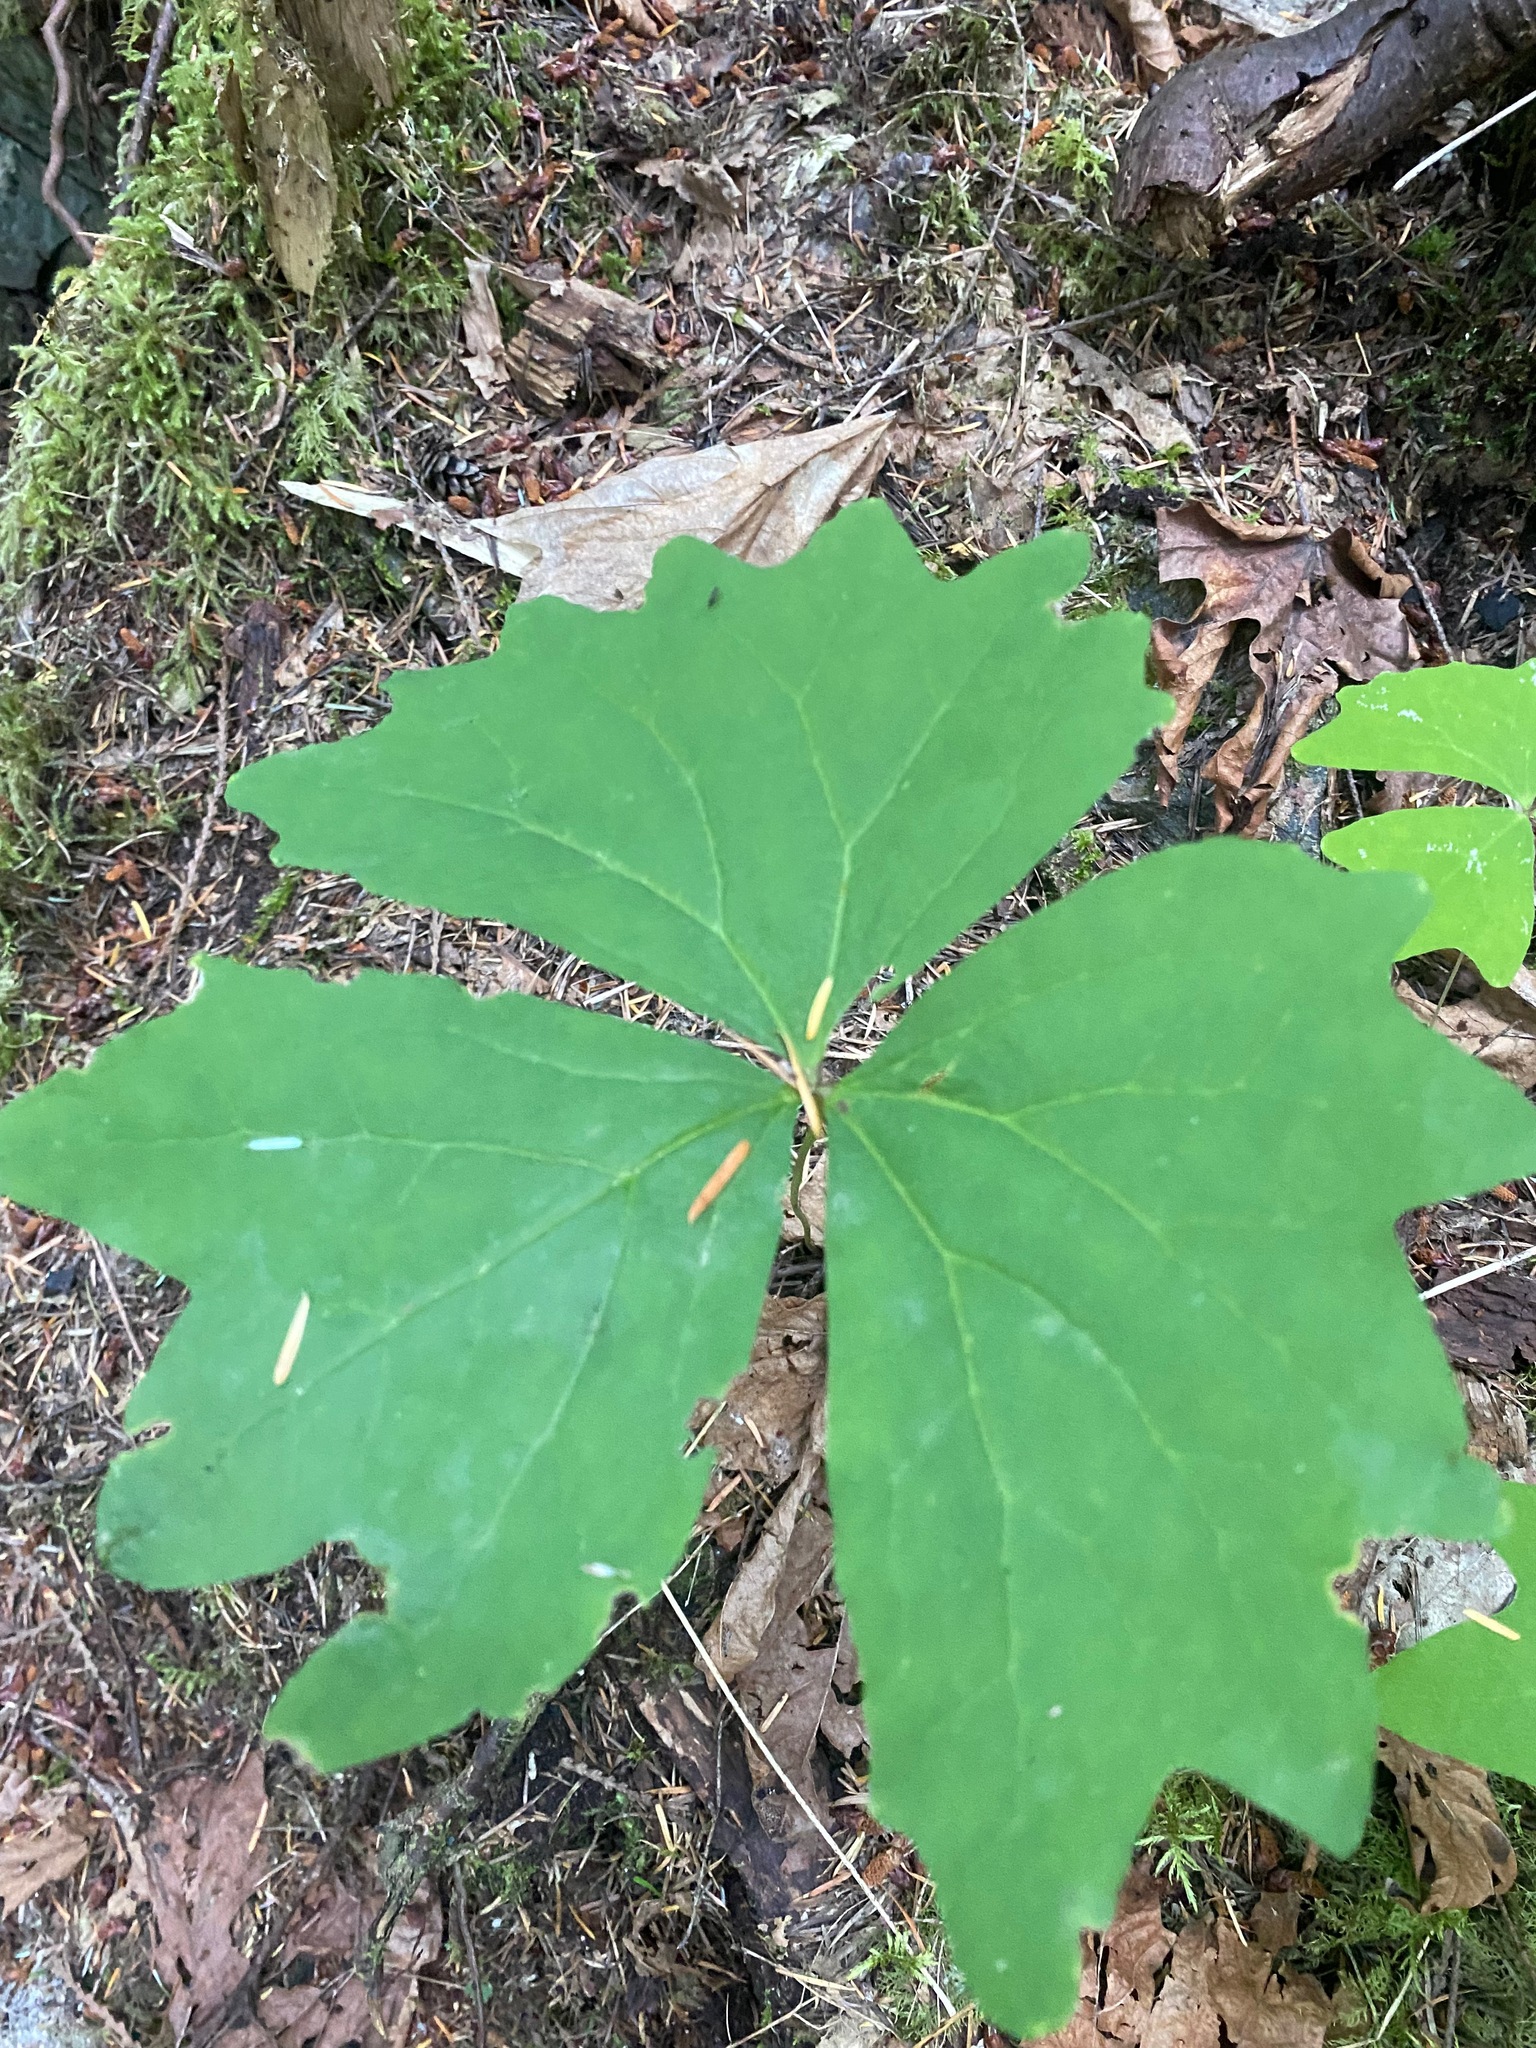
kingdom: Plantae
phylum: Tracheophyta
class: Magnoliopsida
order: Ranunculales
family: Berberidaceae
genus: Achlys
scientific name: Achlys triphylla
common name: Vanilla-leaf
